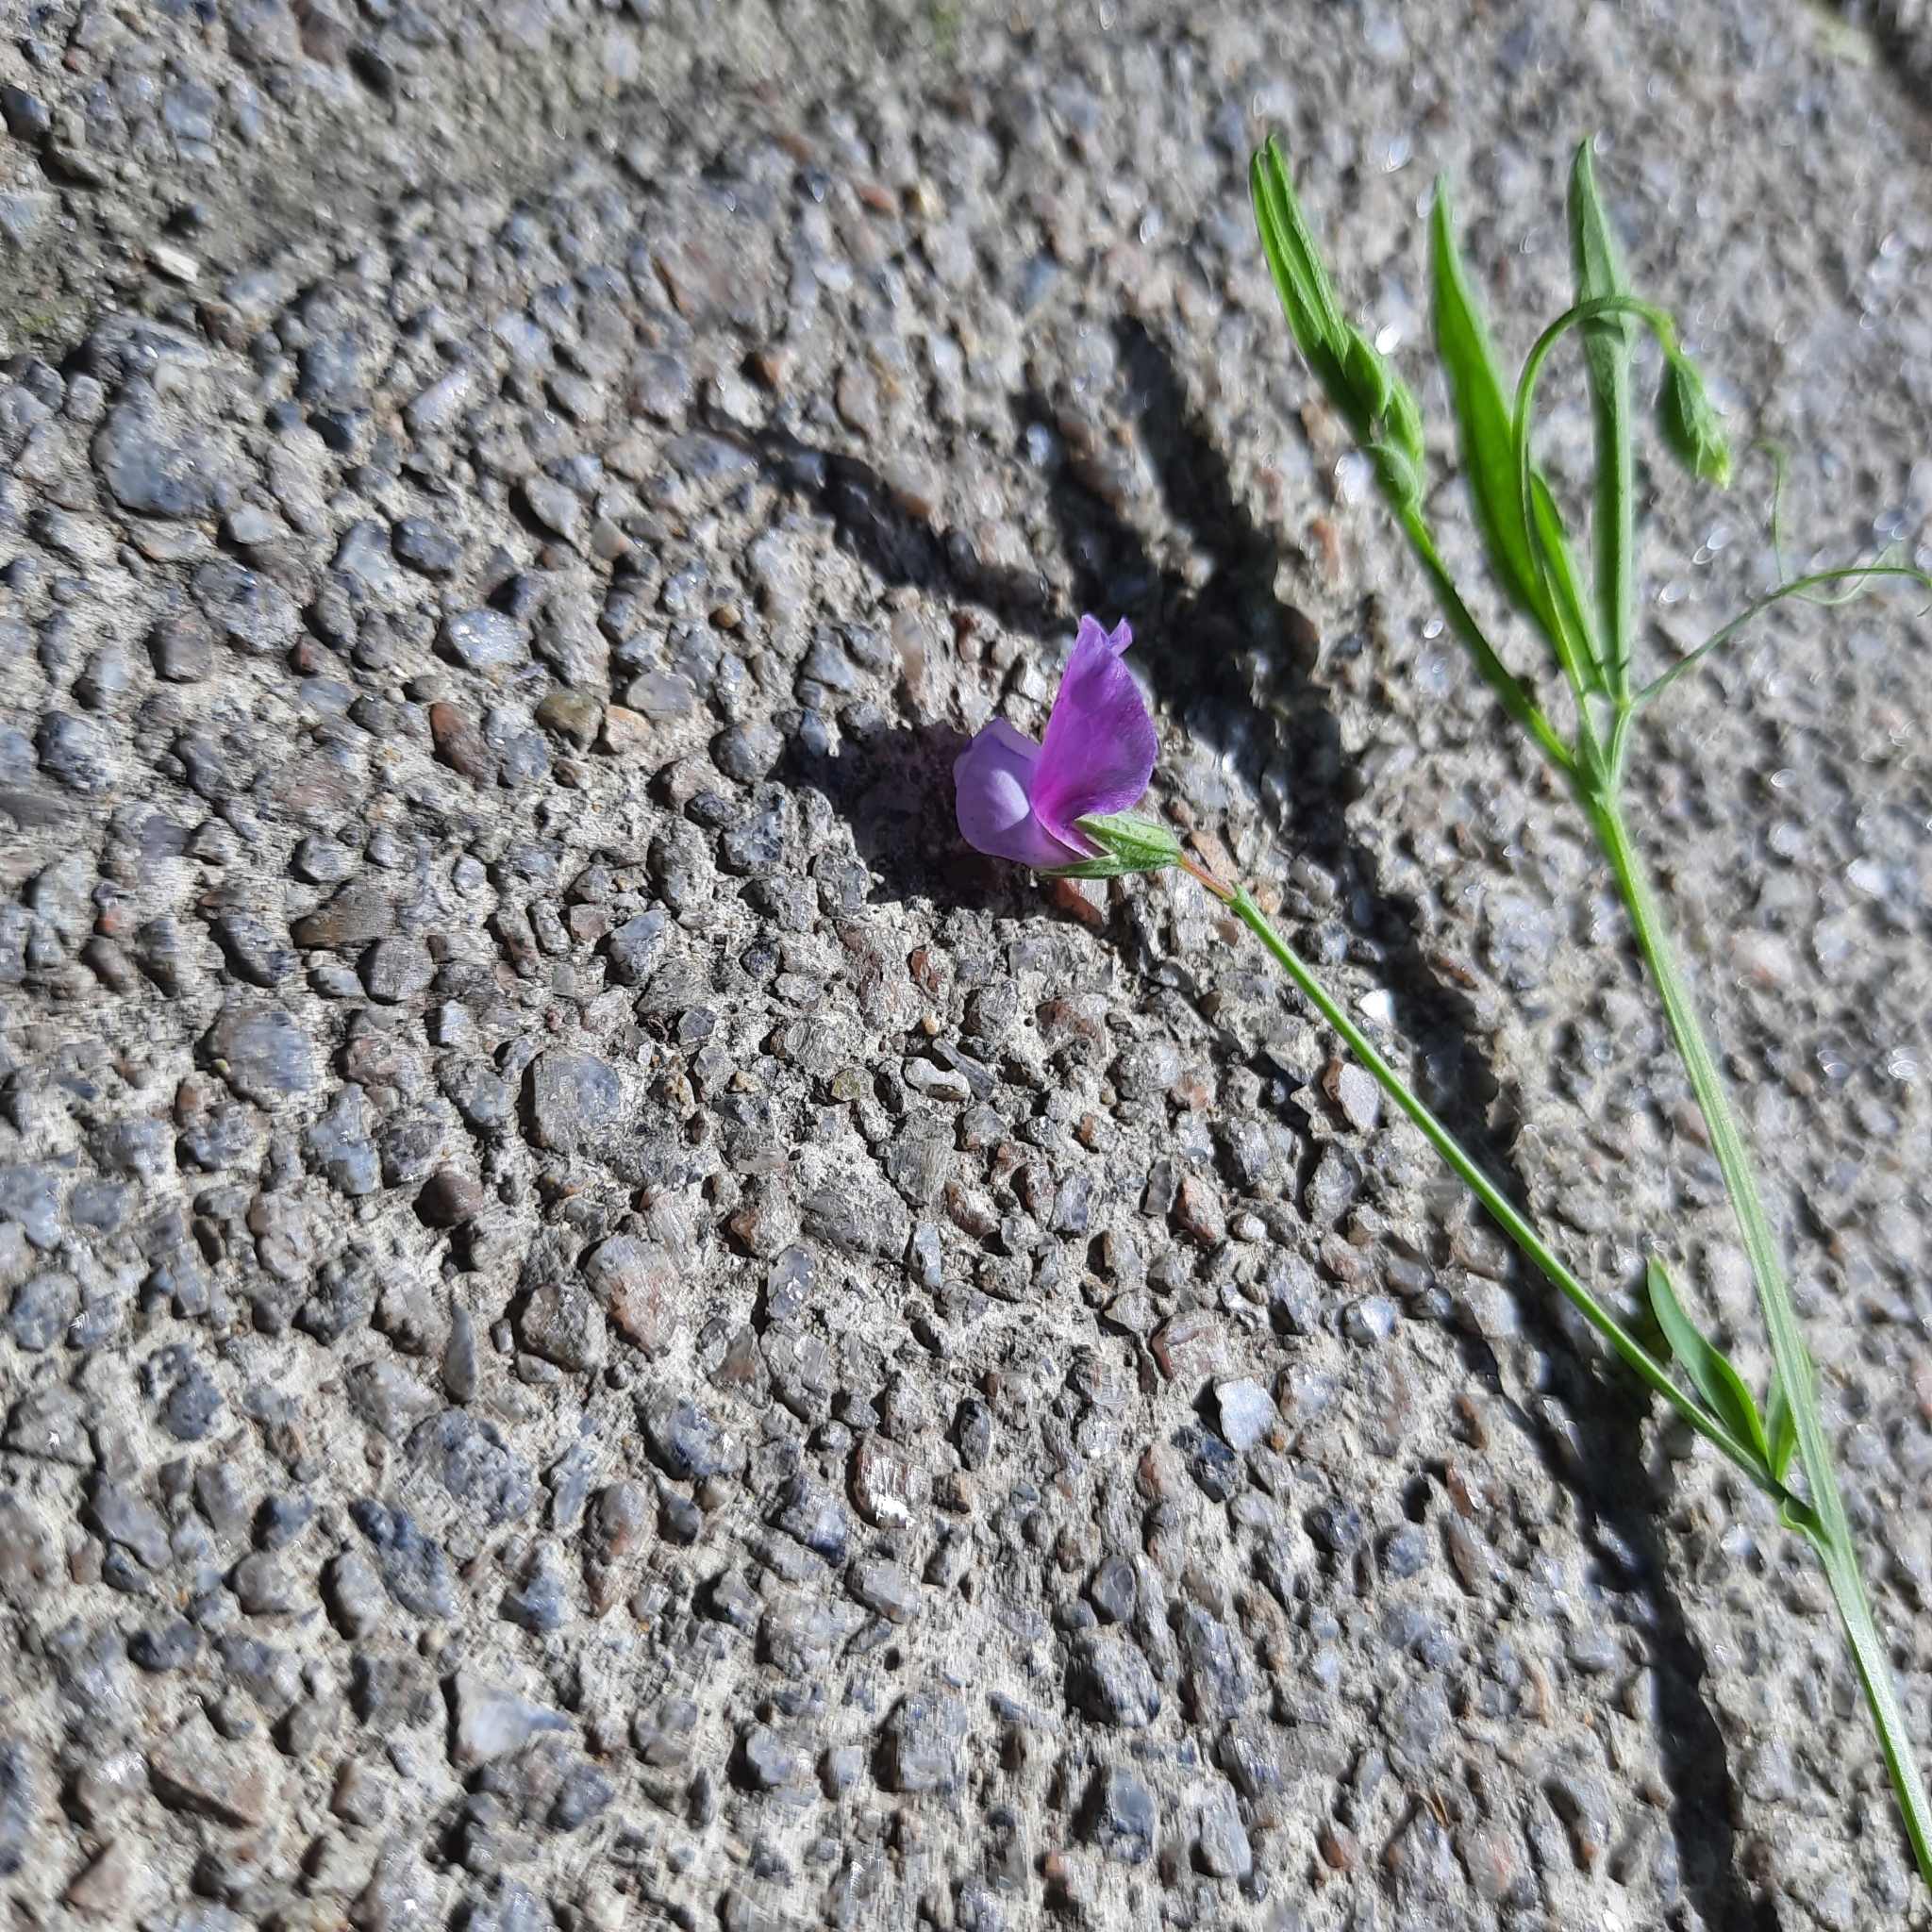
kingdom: Plantae
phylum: Tracheophyta
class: Magnoliopsida
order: Fabales
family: Fabaceae
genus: Lathyrus
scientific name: Lathyrus hirsutus
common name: Hairy vetchling
